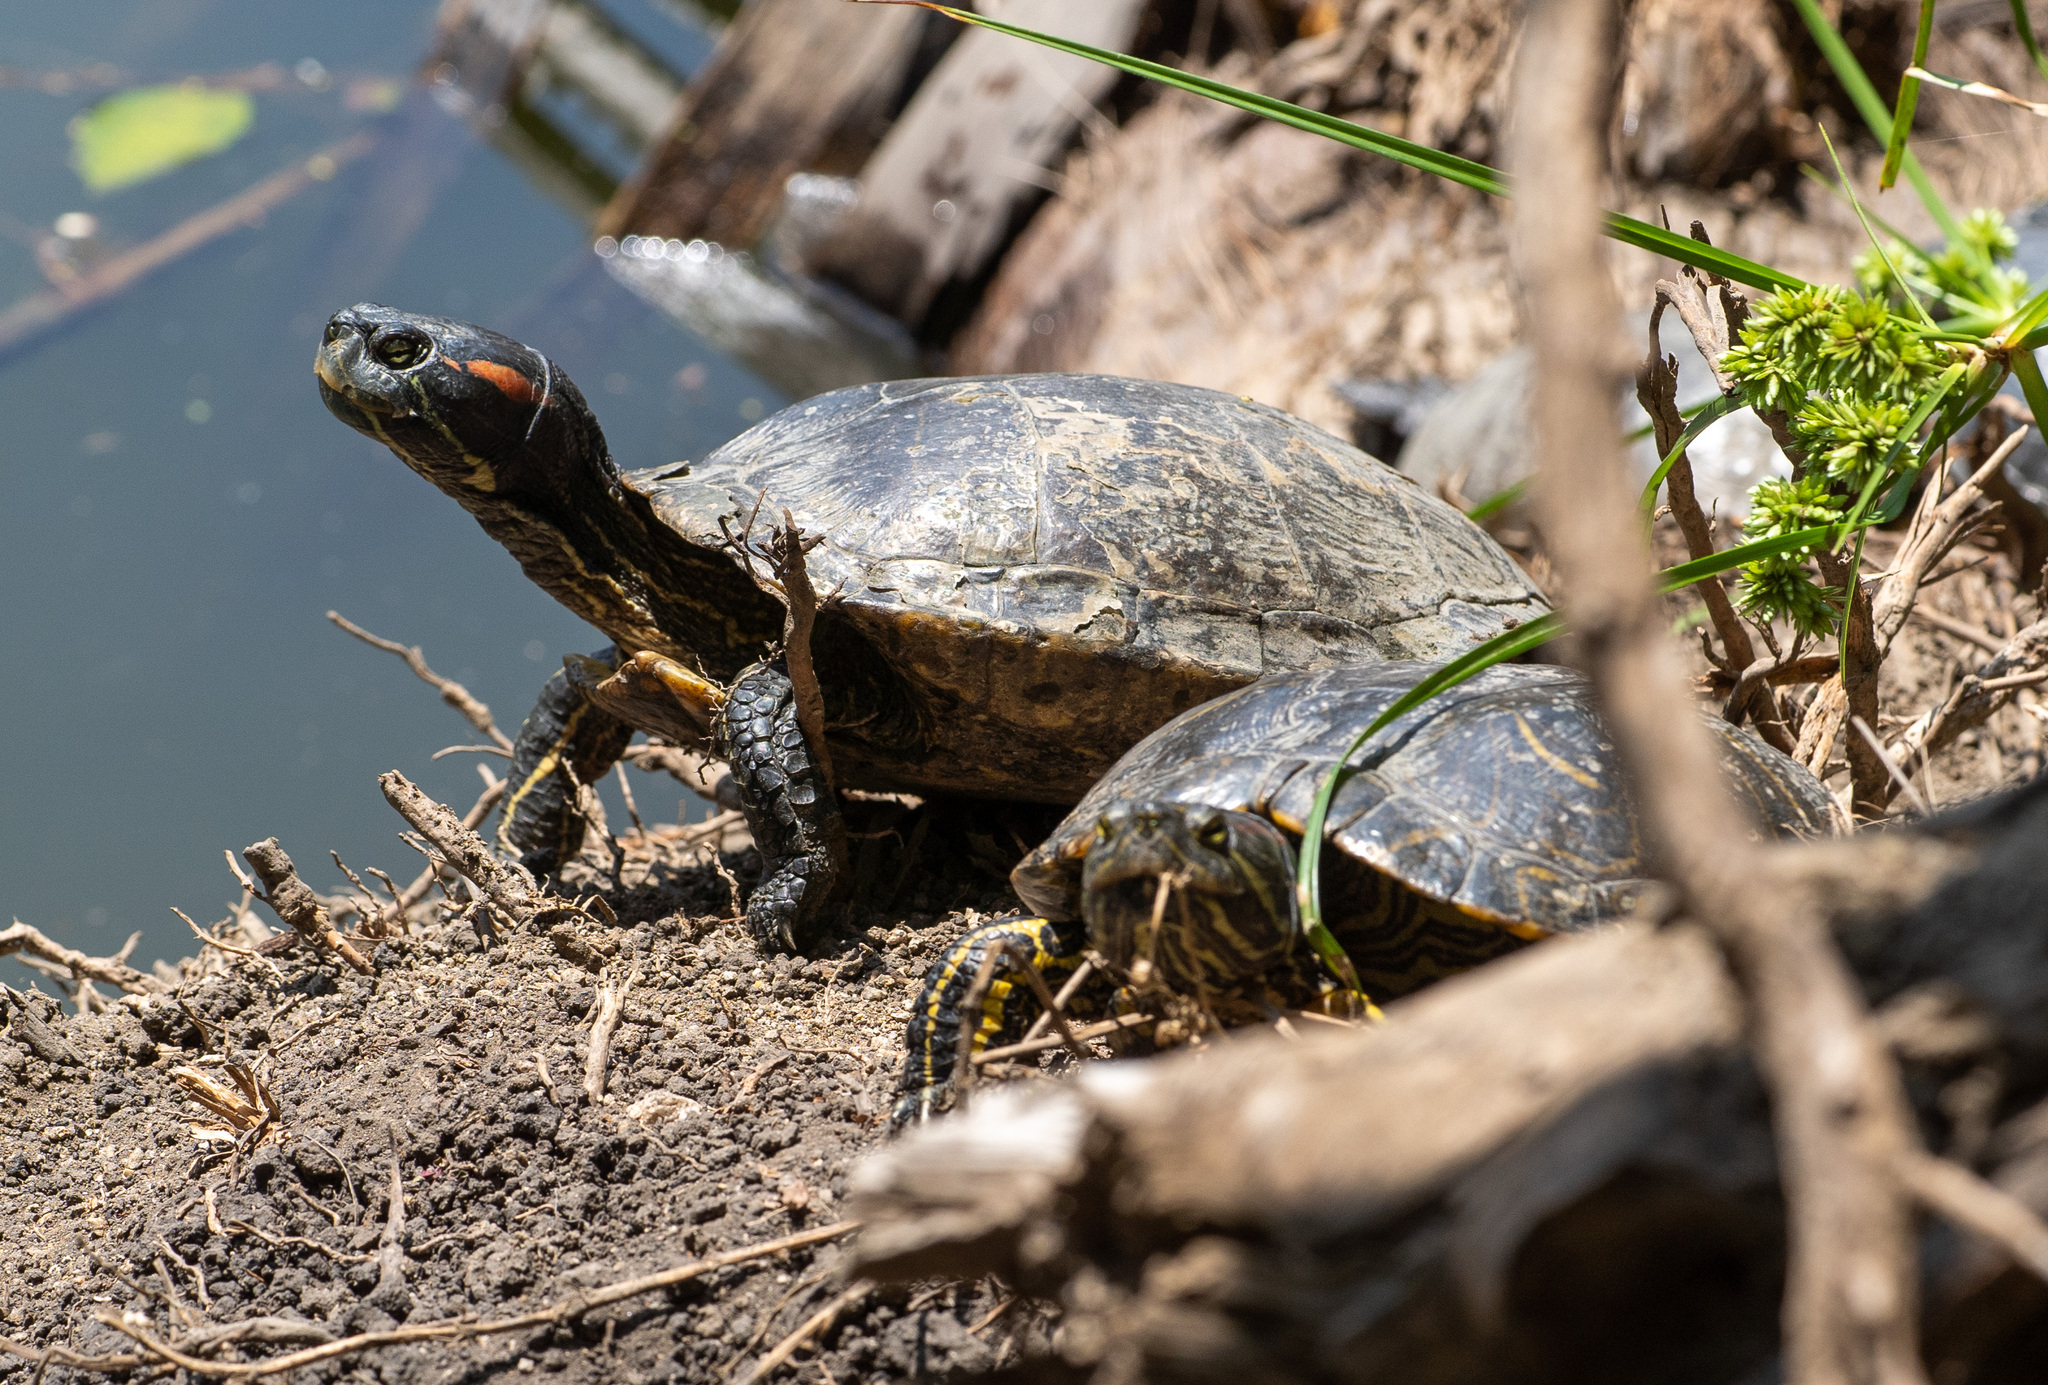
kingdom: Animalia
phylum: Chordata
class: Testudines
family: Emydidae
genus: Trachemys
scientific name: Trachemys scripta
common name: Slider
